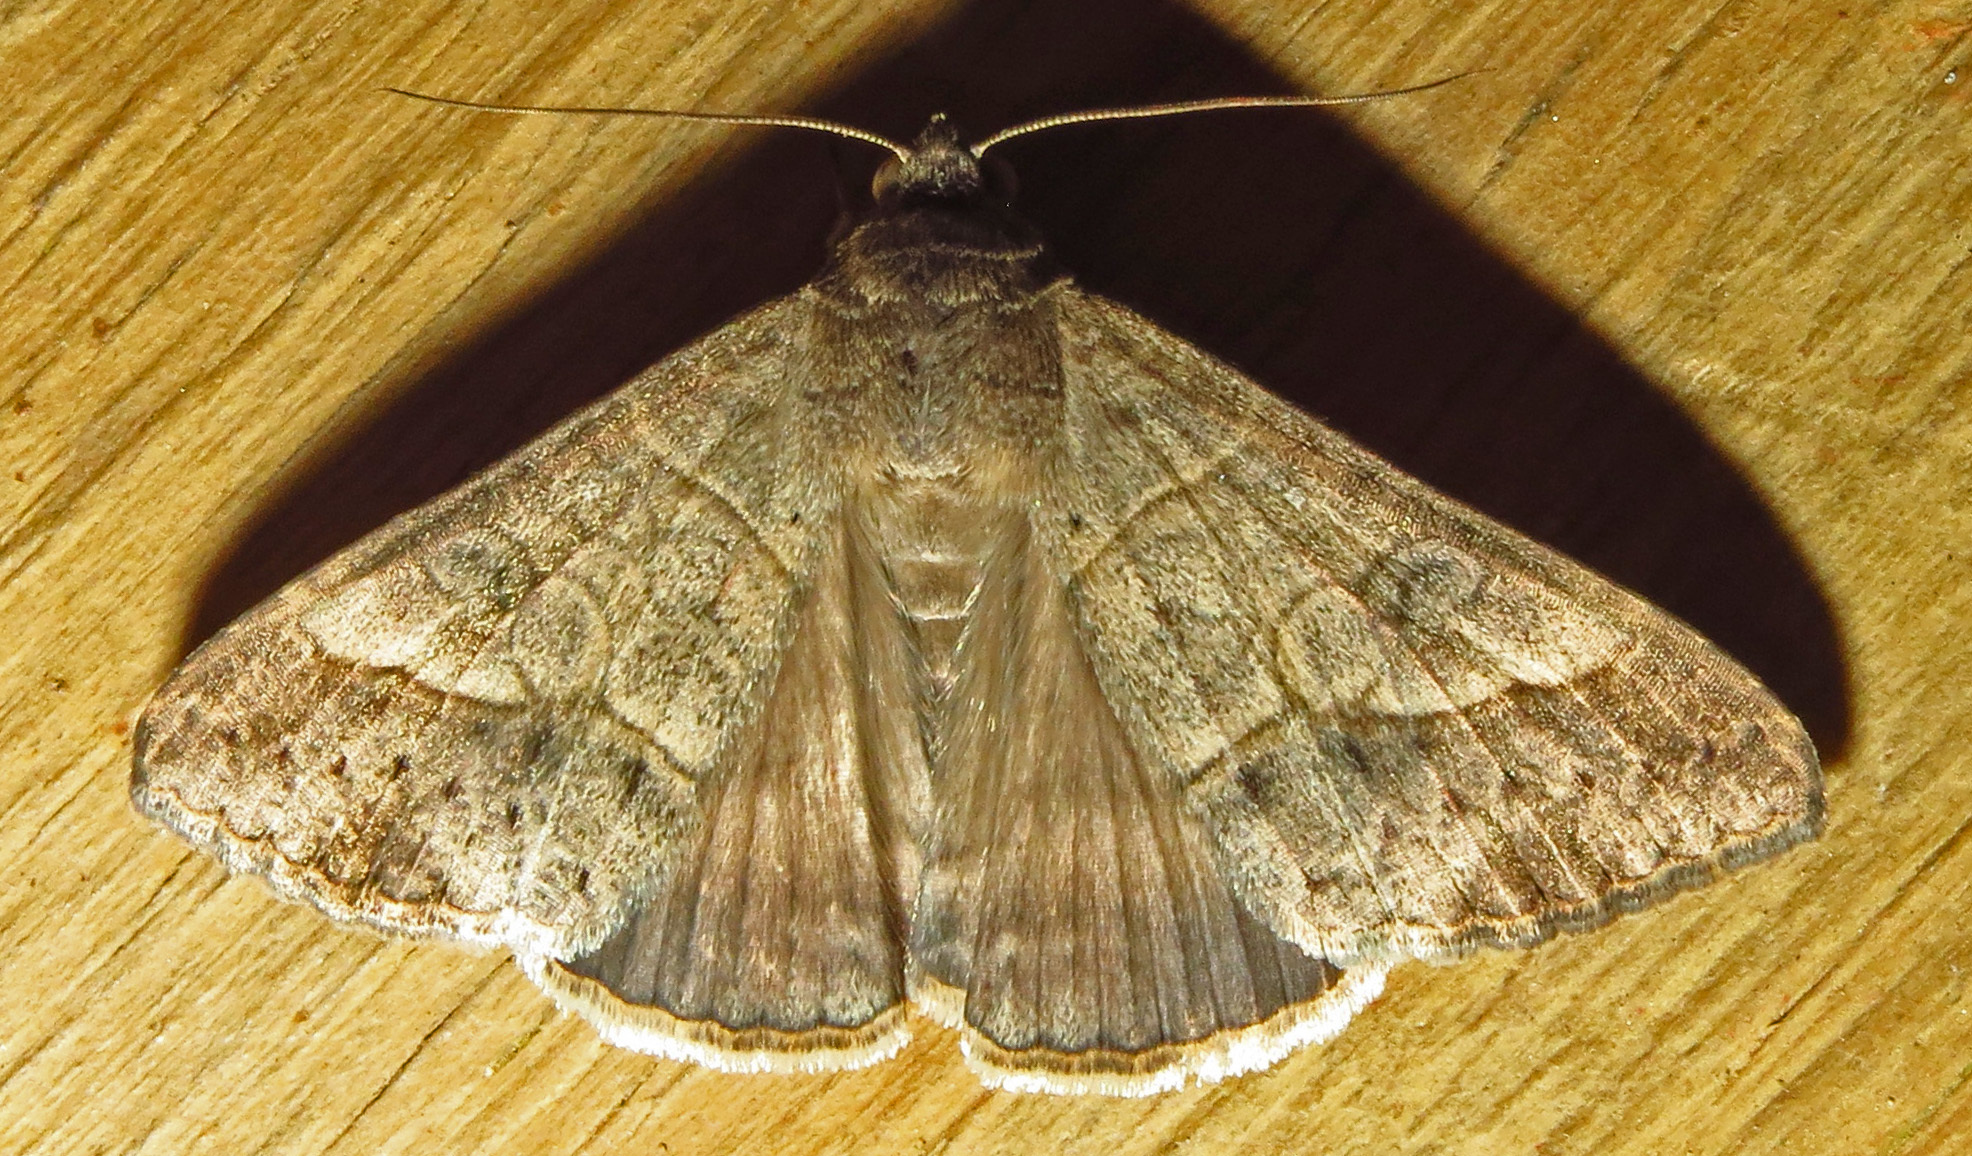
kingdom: Animalia
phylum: Arthropoda
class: Insecta
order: Lepidoptera
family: Erebidae
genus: Mocis
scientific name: Mocis latipes
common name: Striped grass looper
